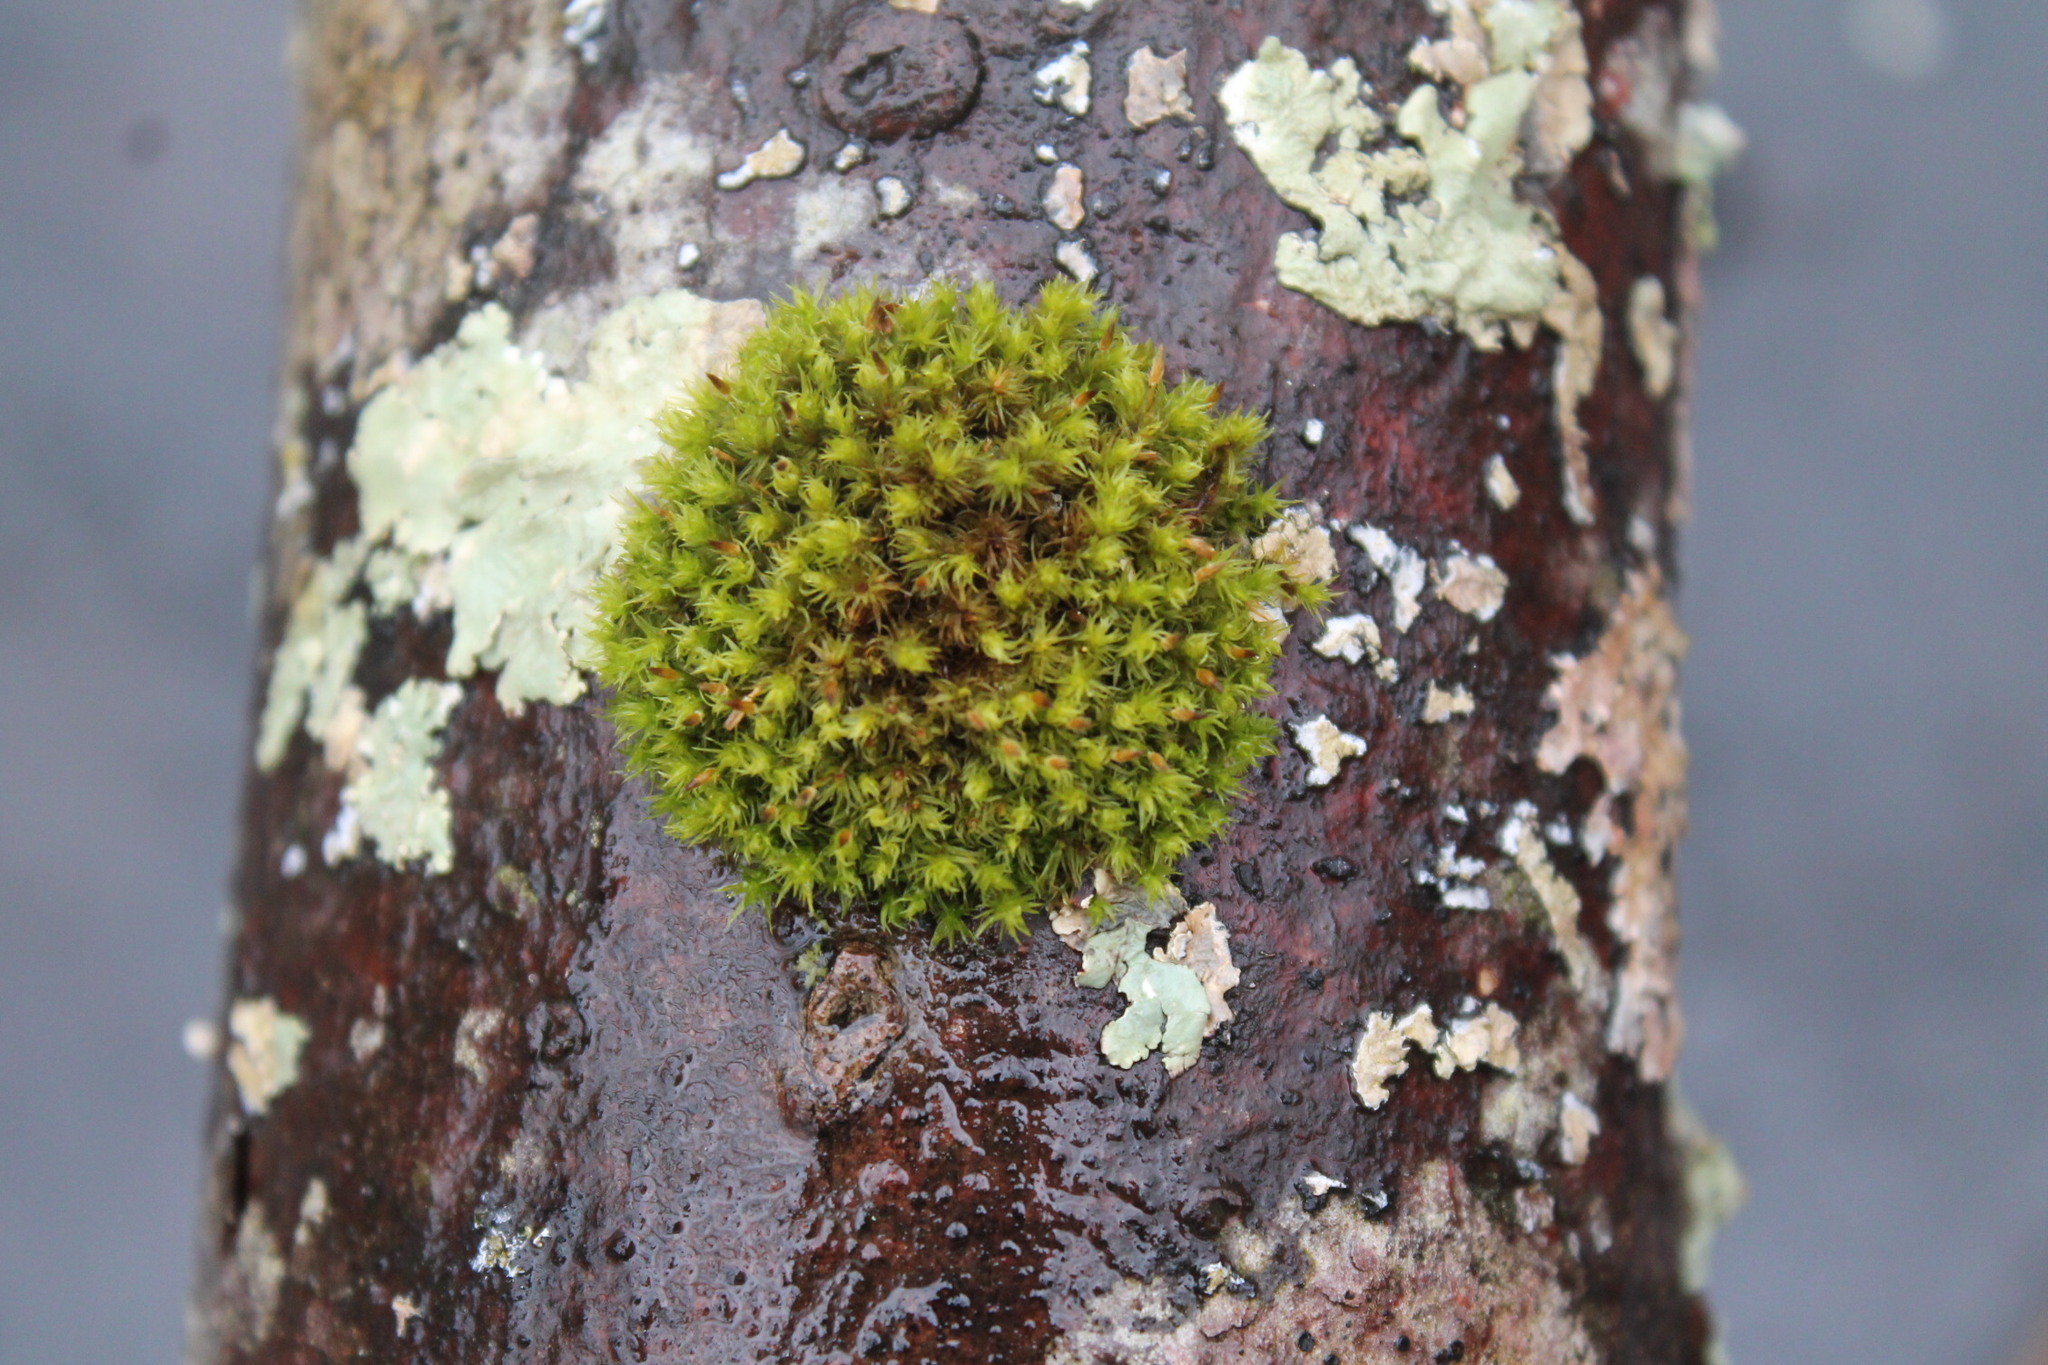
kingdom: Plantae
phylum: Bryophyta
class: Bryopsida
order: Orthotrichales
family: Orthotrichaceae
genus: Ulota
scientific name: Ulota crispa
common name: Crisped pincushion moss
